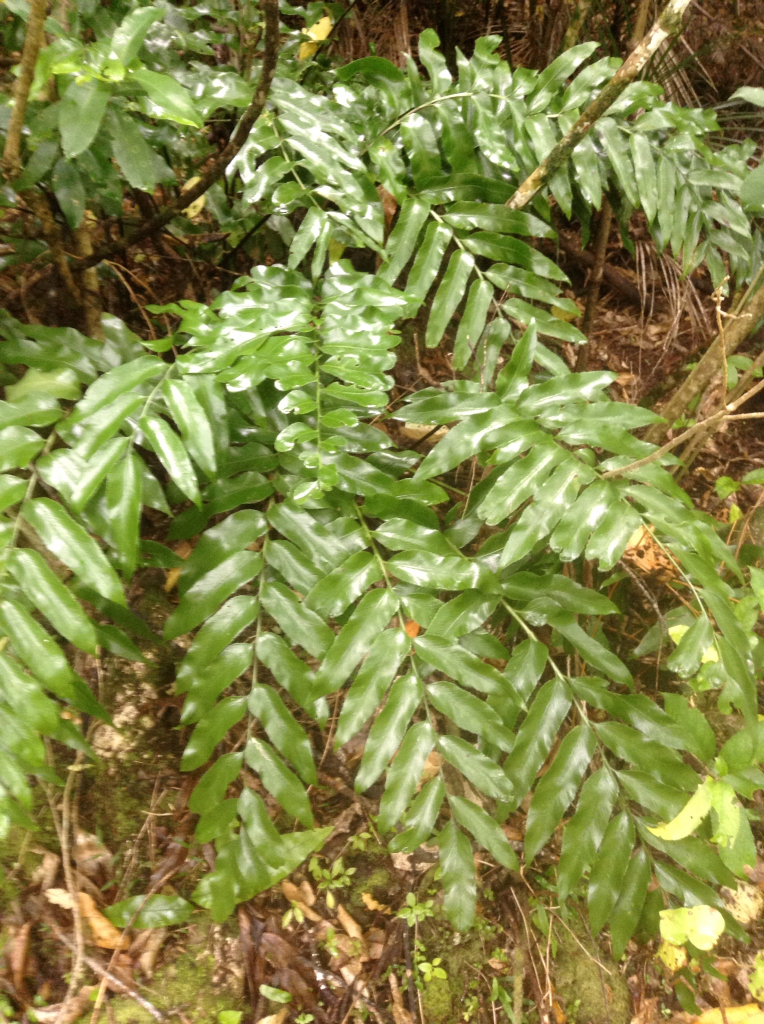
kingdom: Plantae
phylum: Tracheophyta
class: Polypodiopsida
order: Polypodiales
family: Aspleniaceae
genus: Asplenium
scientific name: Asplenium oblongifolium
